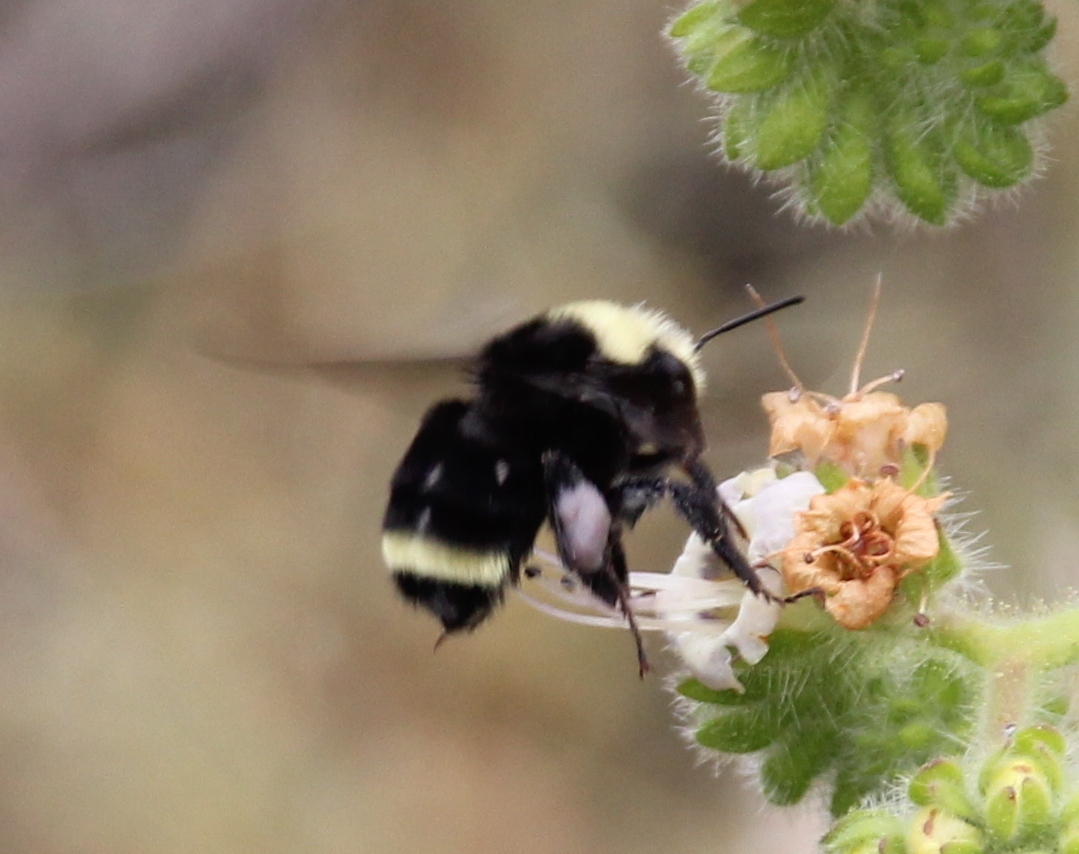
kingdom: Animalia
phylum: Arthropoda
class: Insecta
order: Hymenoptera
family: Apidae
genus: Bombus
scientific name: Bombus vosnesenskii
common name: Vosnesensky bumble bee
